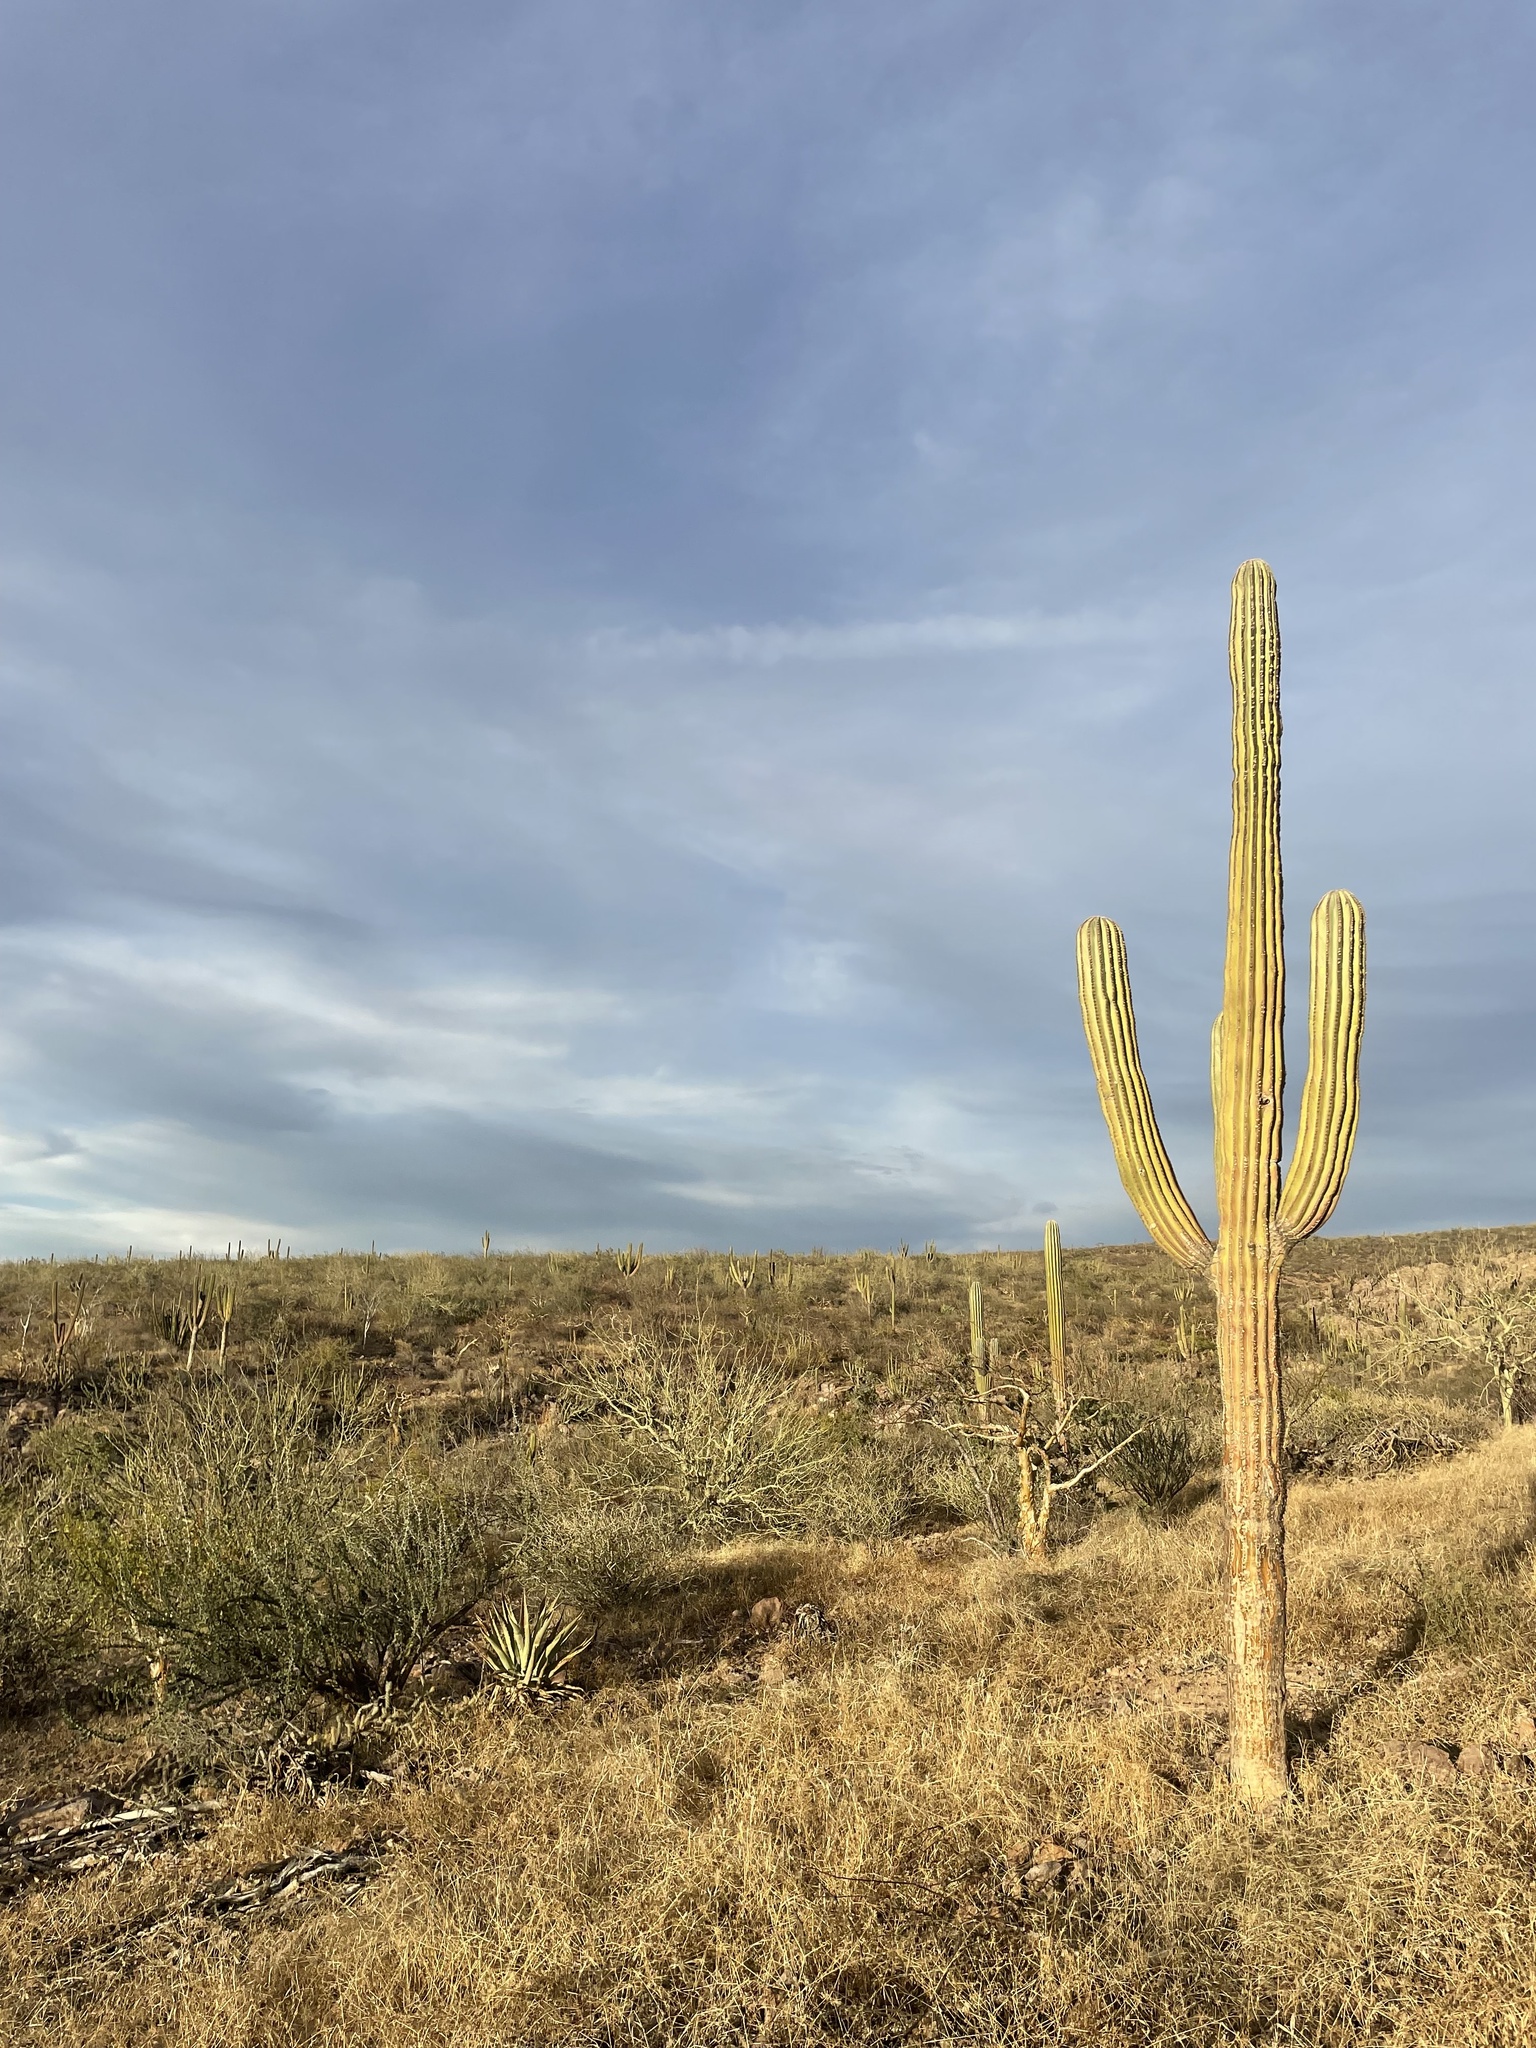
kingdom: Plantae
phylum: Tracheophyta
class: Magnoliopsida
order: Caryophyllales
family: Cactaceae
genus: Pachycereus
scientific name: Pachycereus pringlei
